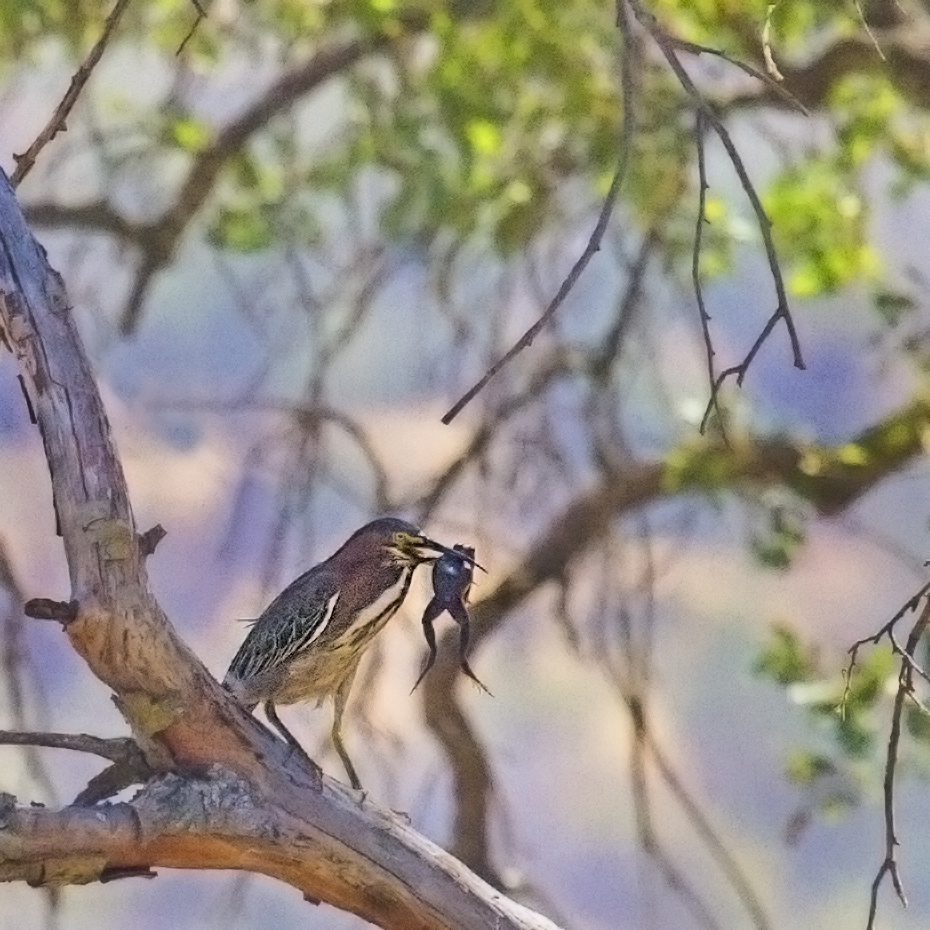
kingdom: Animalia
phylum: Chordata
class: Aves
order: Pelecaniformes
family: Ardeidae
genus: Butorides
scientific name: Butorides virescens
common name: Green heron
